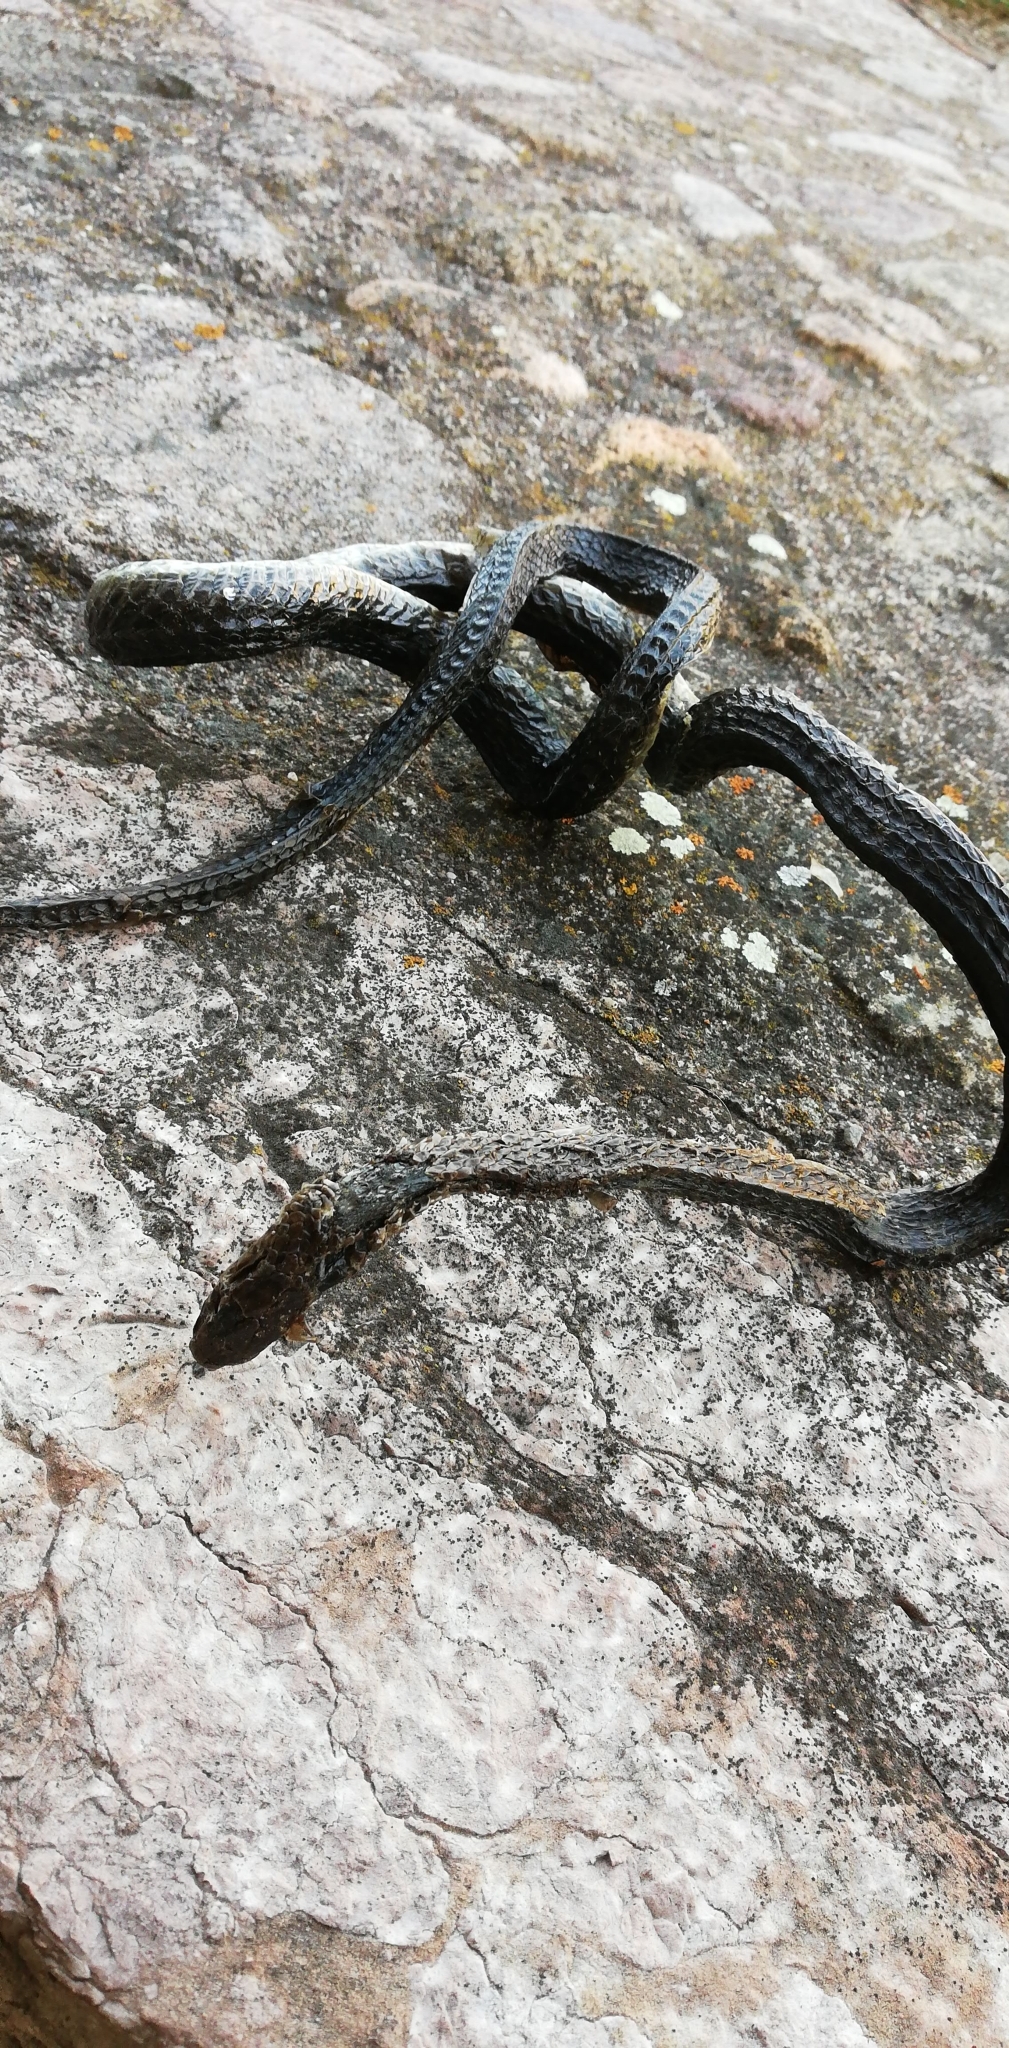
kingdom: Animalia
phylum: Chordata
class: Squamata
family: Colubridae
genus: Hierophis
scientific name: Hierophis viridiflavus
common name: Green whip snake
